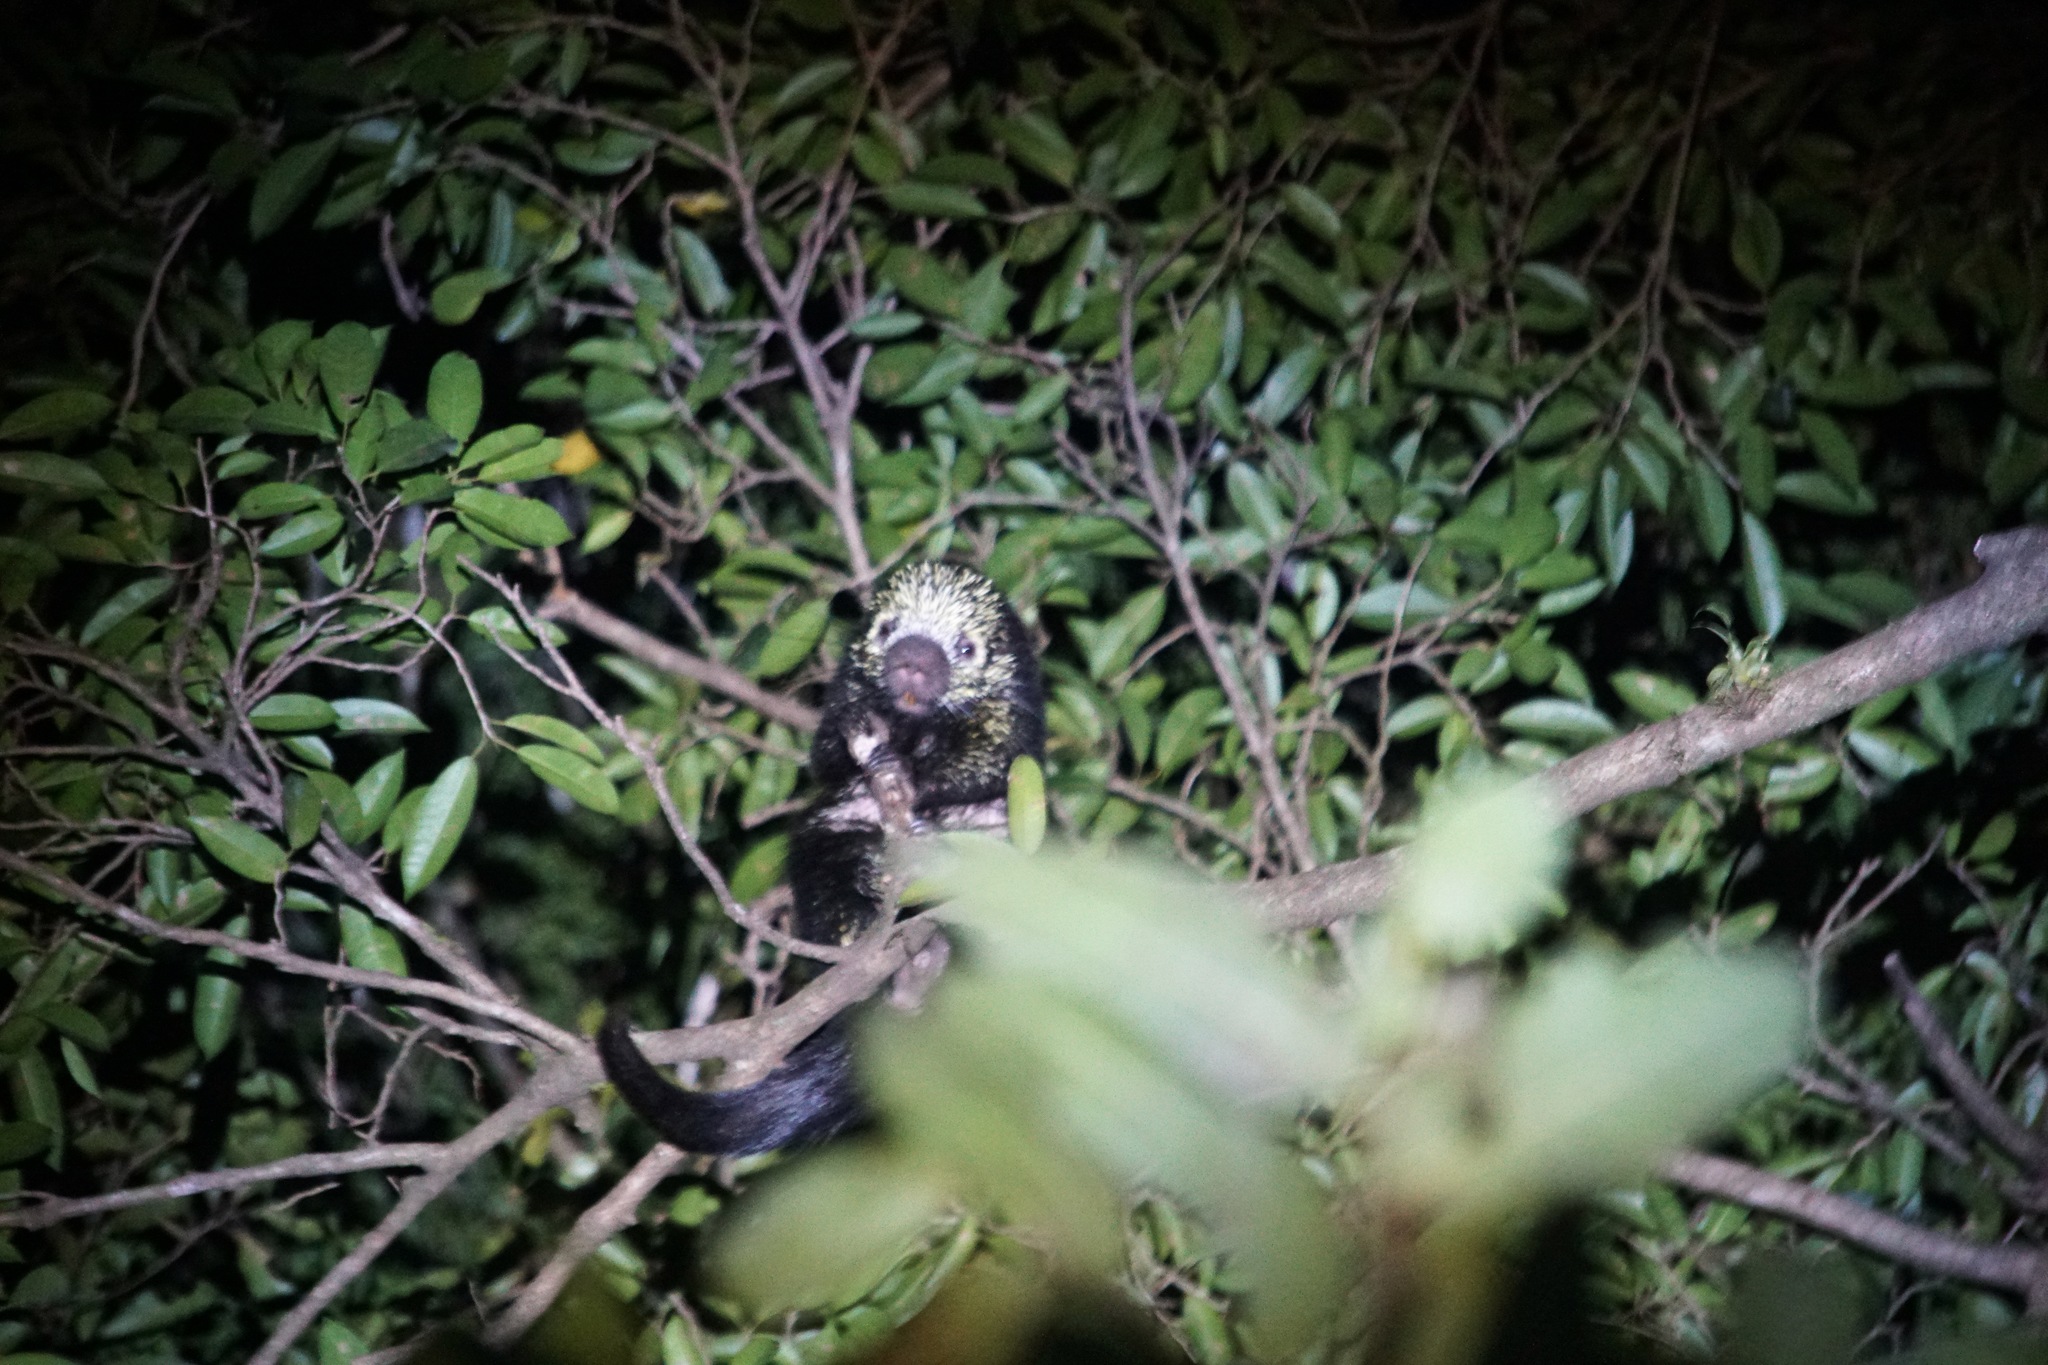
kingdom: Animalia
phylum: Chordata
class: Mammalia
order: Rodentia
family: Erethizontidae
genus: Sphiggurus
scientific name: Sphiggurus mexicanus
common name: Mexican hairy dwarf porcupine
